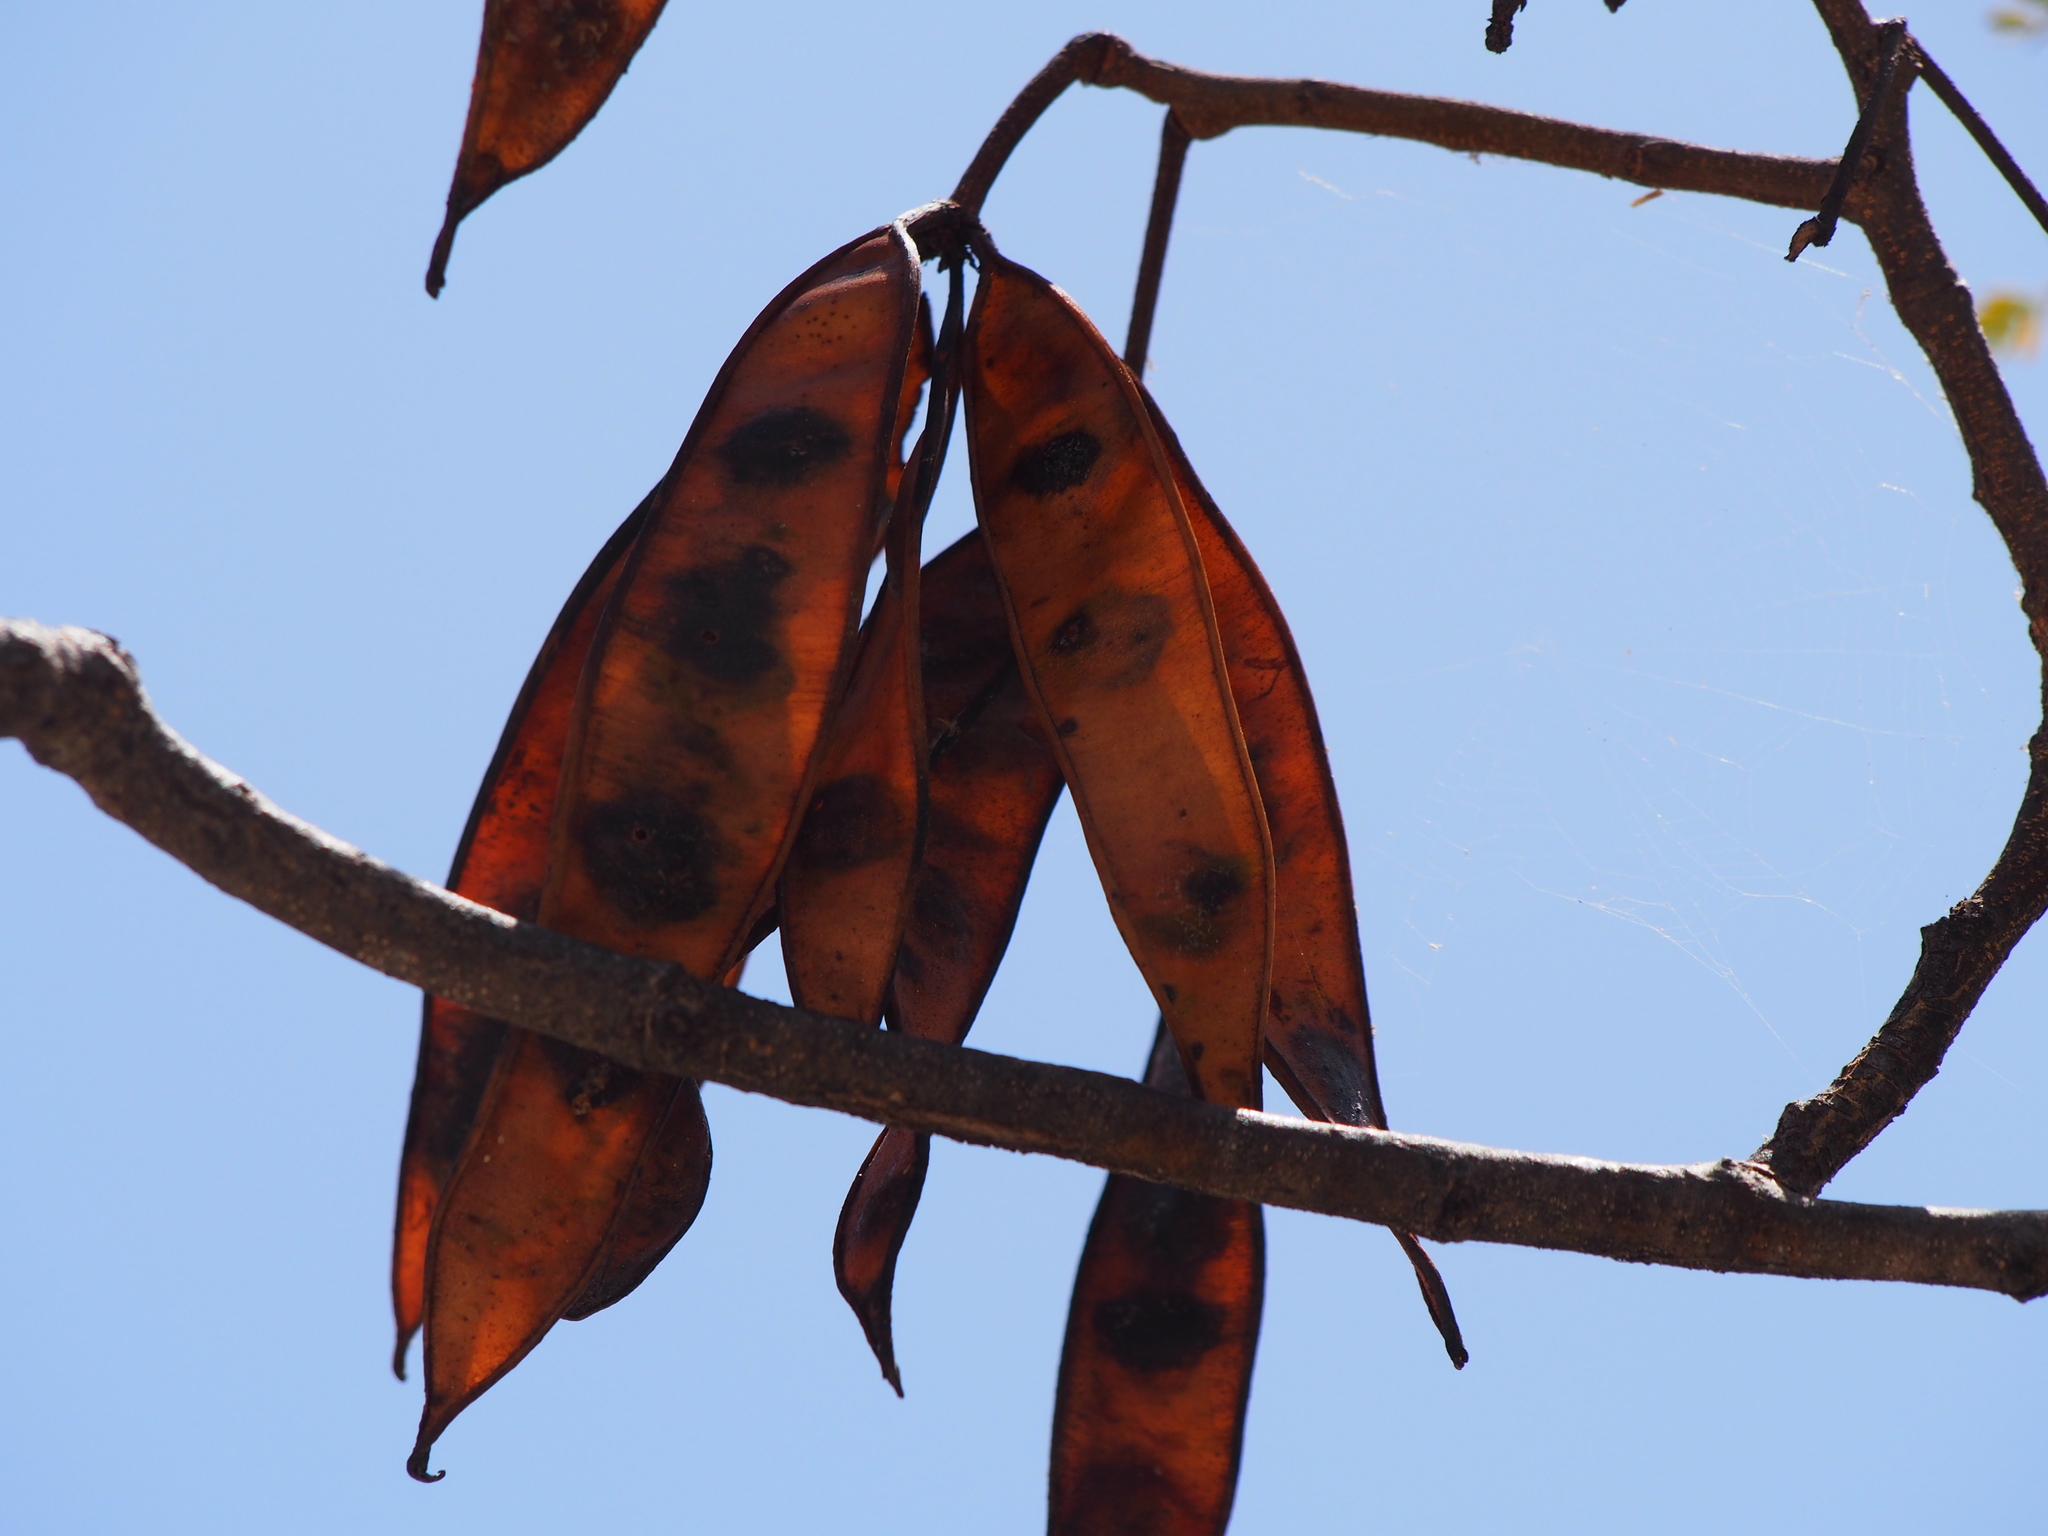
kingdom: Plantae
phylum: Tracheophyta
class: Magnoliopsida
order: Fabales
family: Fabaceae
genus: Lysiloma
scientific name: Lysiloma divaricatum
